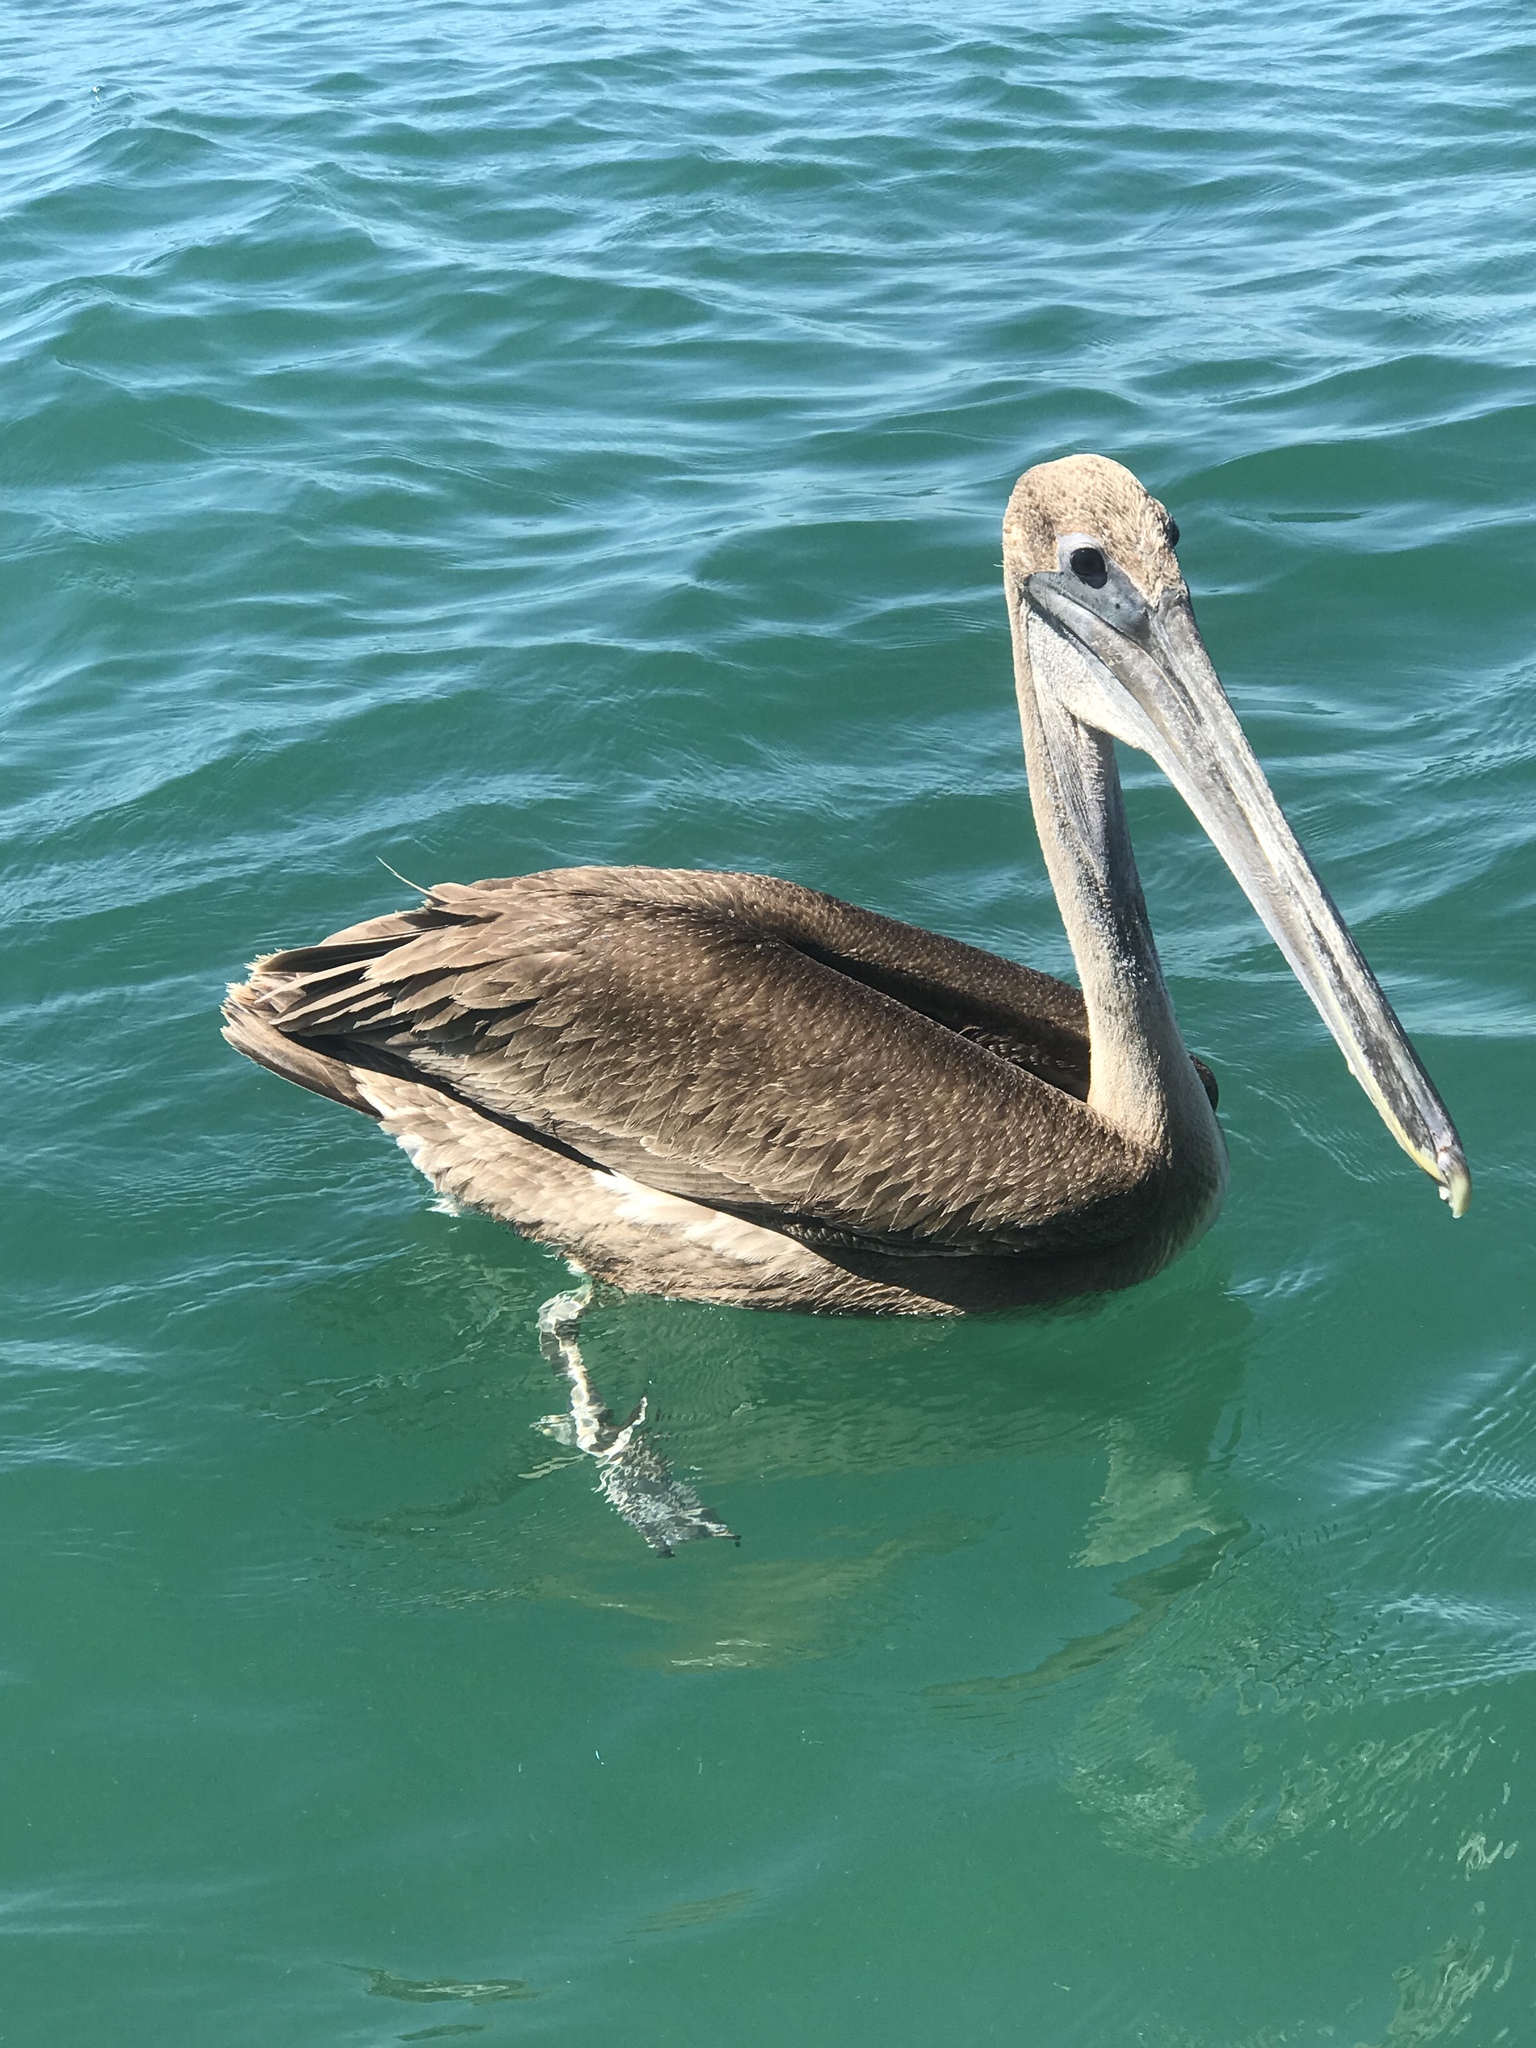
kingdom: Animalia
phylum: Chordata
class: Aves
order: Pelecaniformes
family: Pelecanidae
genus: Pelecanus
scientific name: Pelecanus occidentalis
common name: Brown pelican
